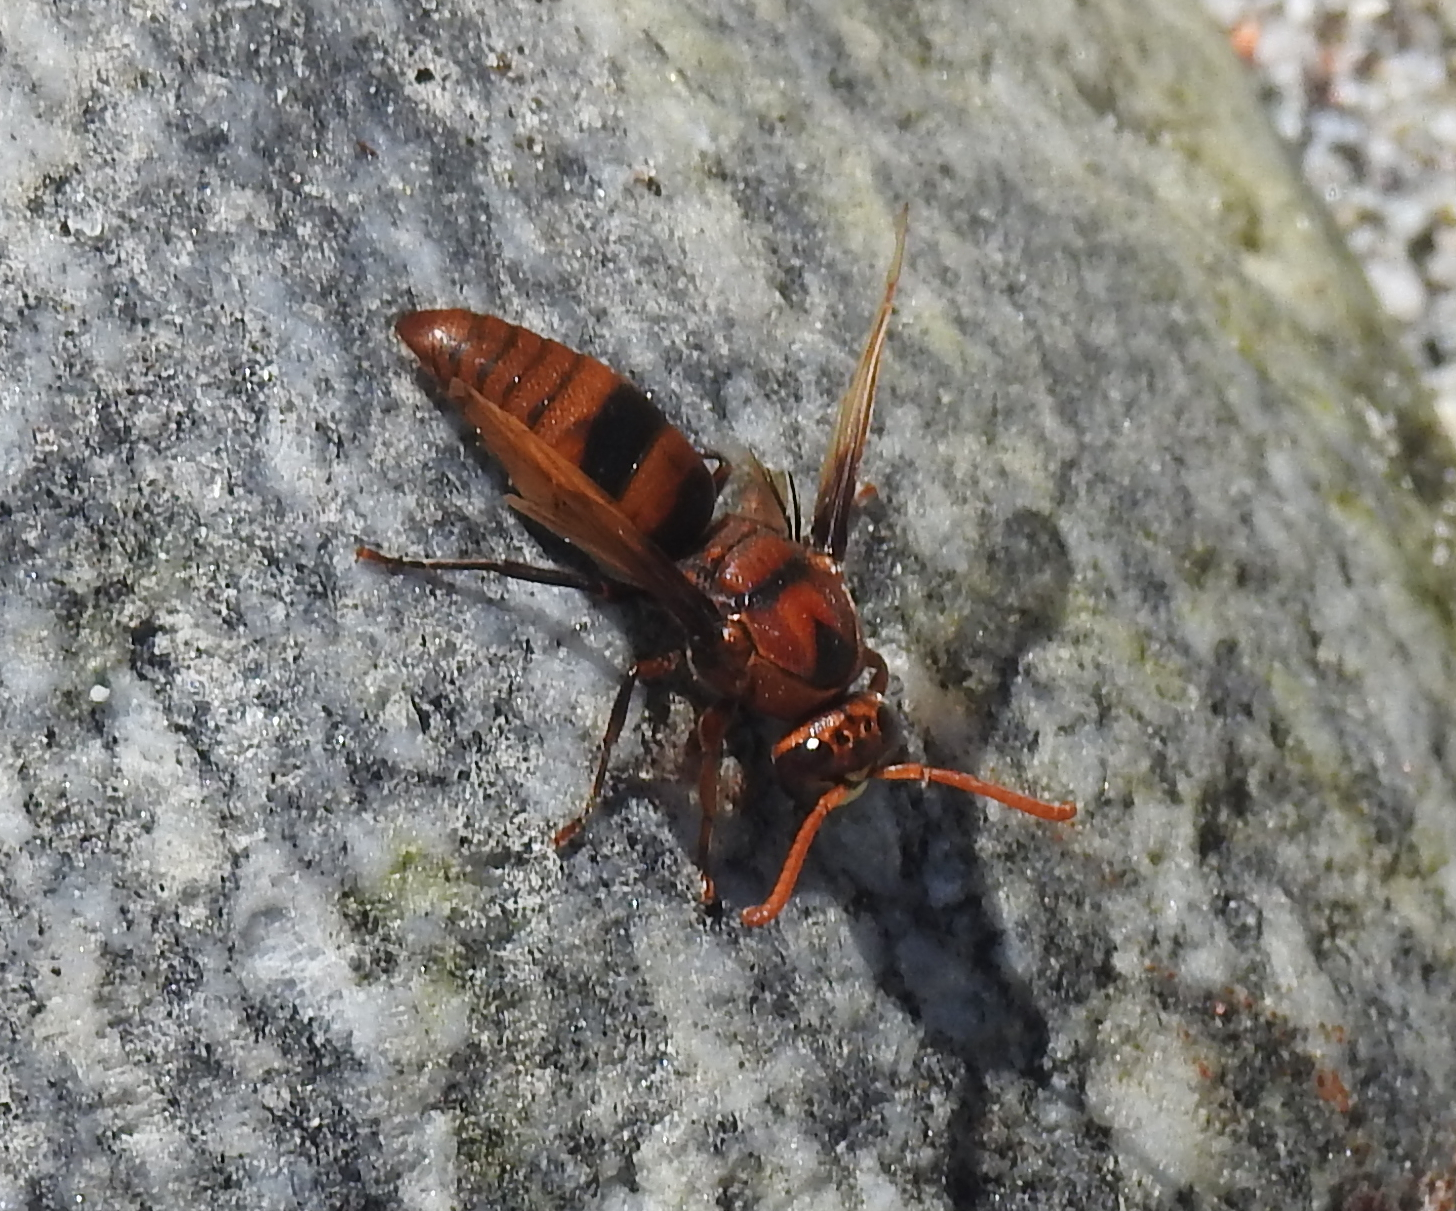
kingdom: Animalia
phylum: Arthropoda
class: Insecta
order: Hymenoptera
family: Eumenidae
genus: Rhynchium
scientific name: Rhynchium brunneum
